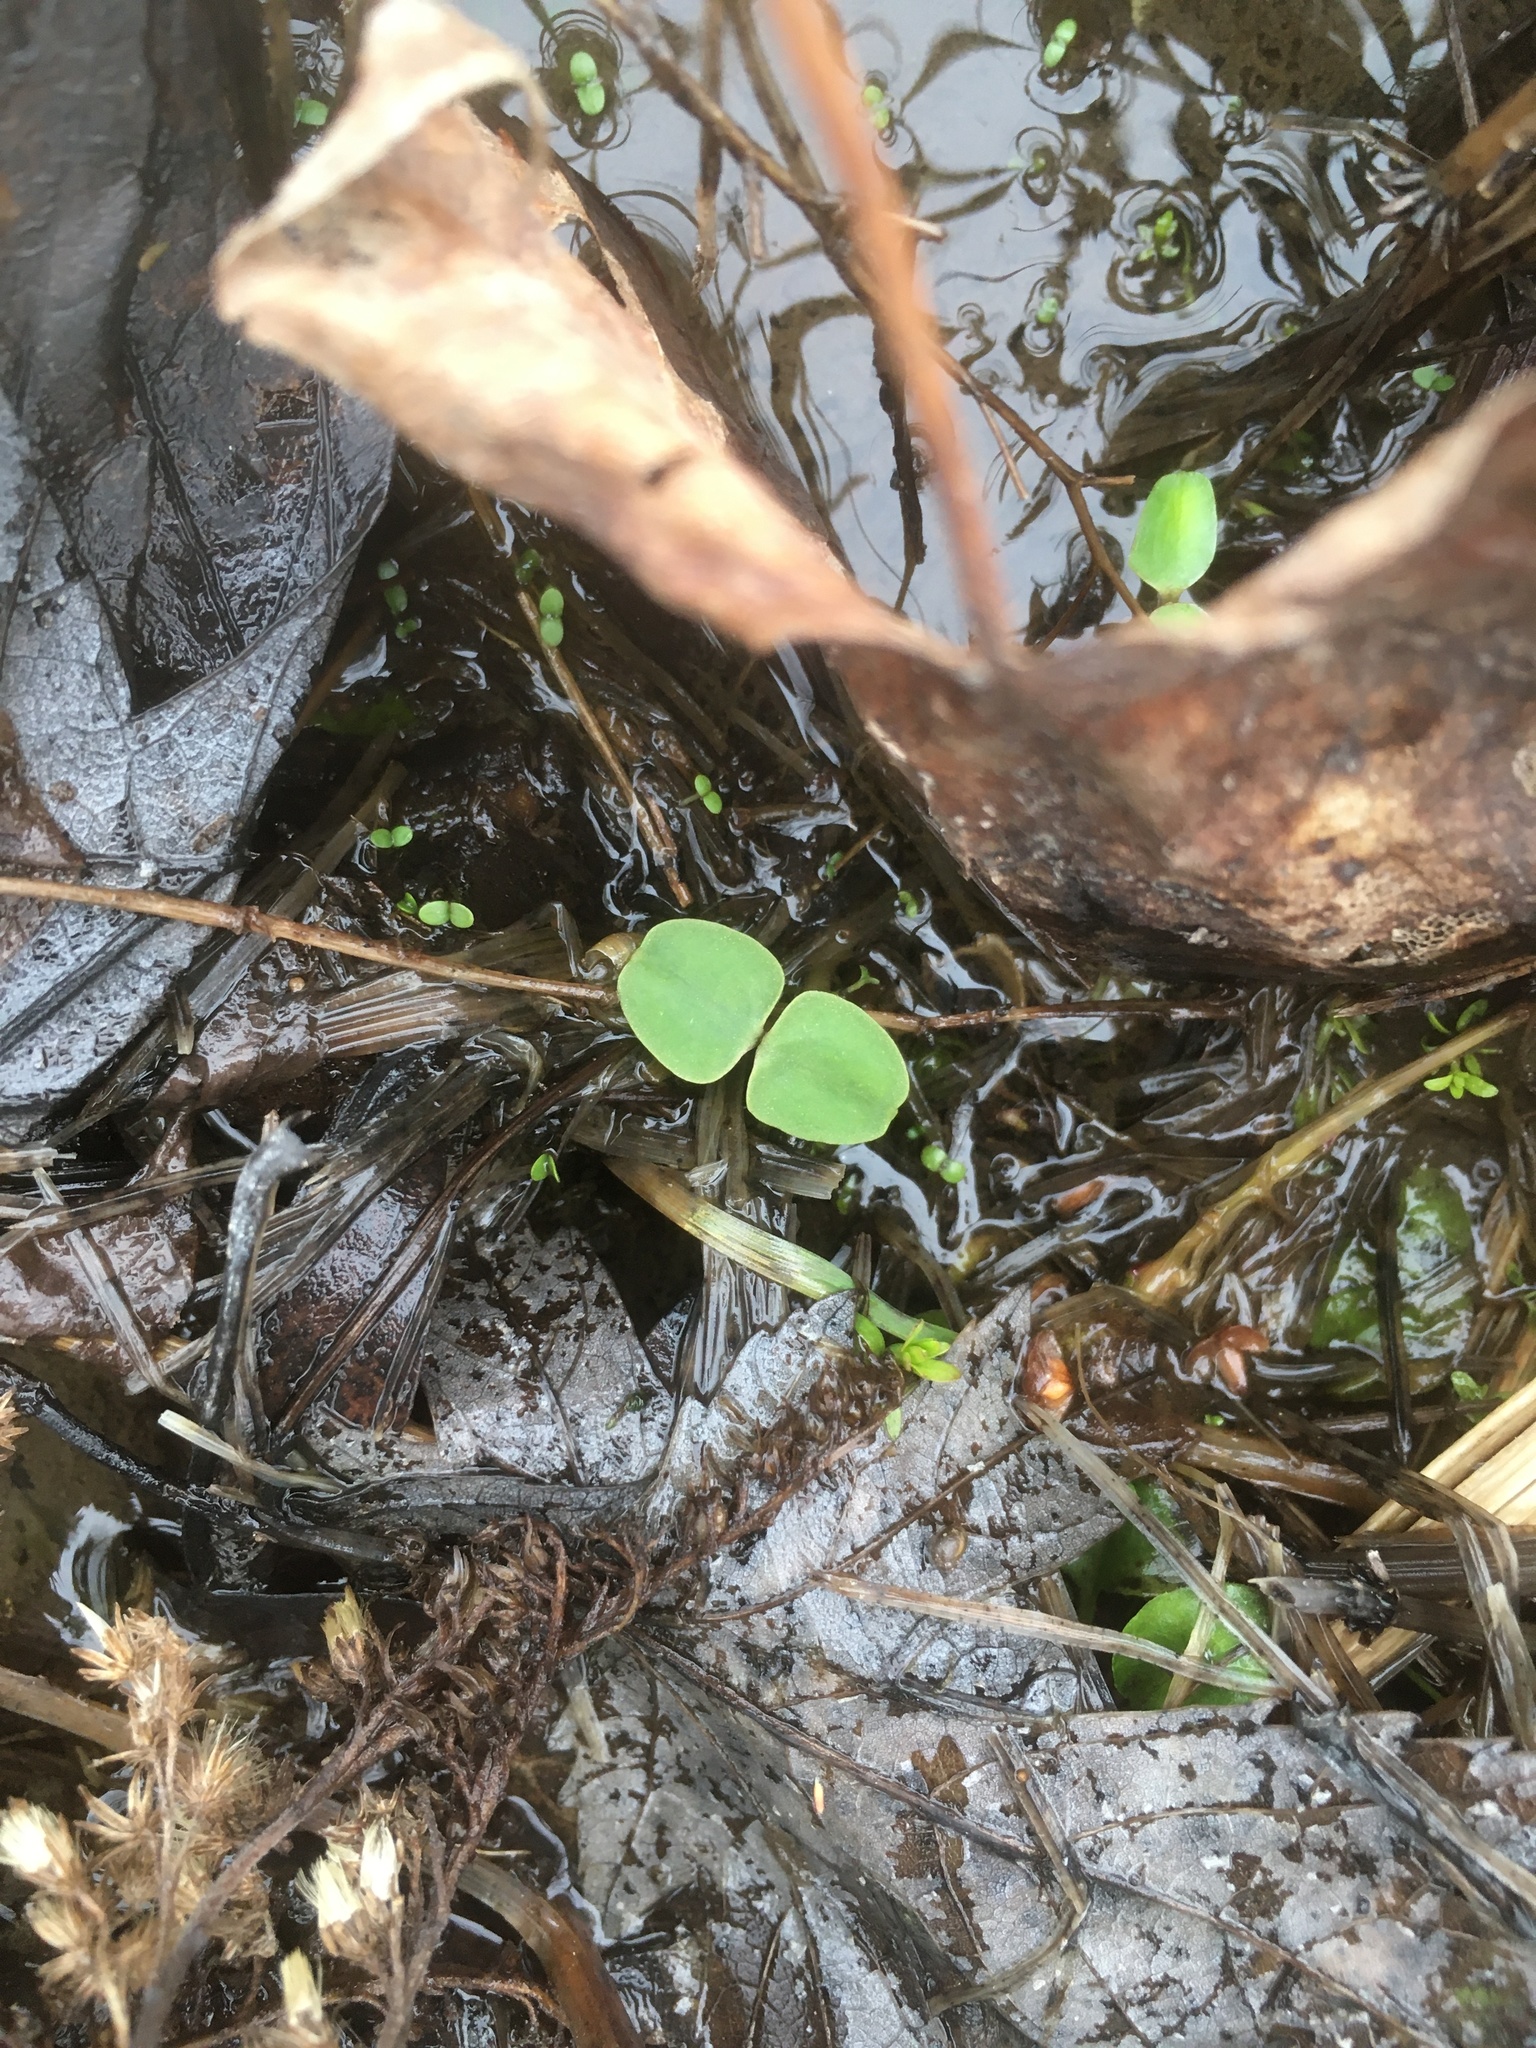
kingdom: Plantae
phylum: Tracheophyta
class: Magnoliopsida
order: Ericales
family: Balsaminaceae
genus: Impatiens
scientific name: Impatiens capensis
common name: Orange balsam
